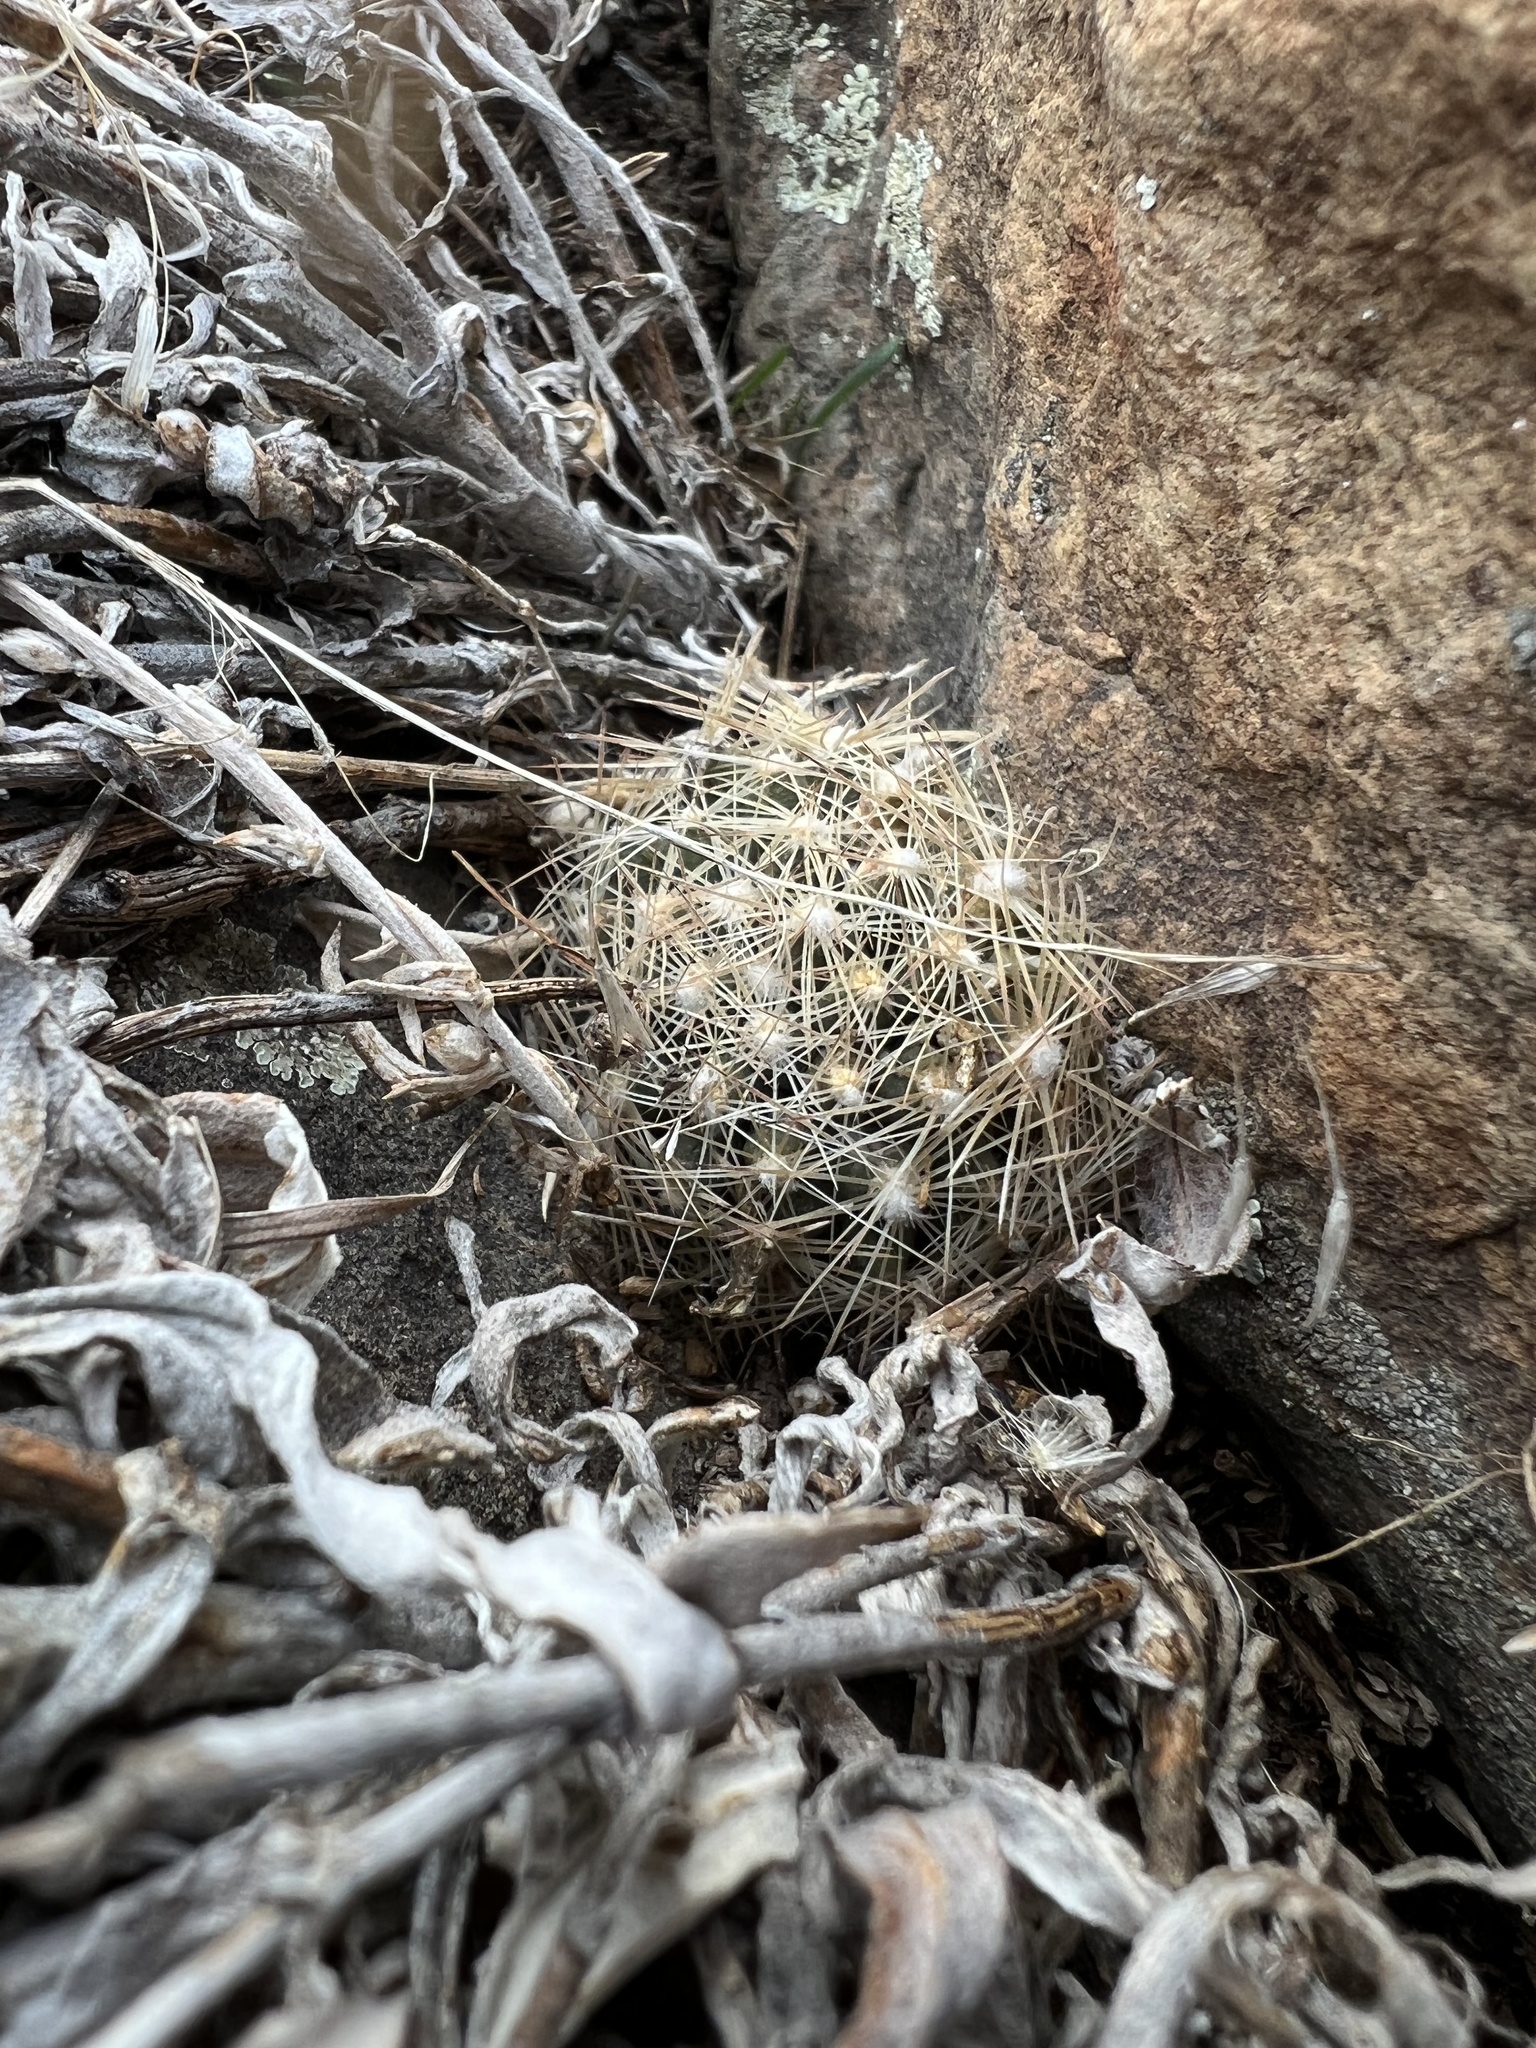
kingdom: Plantae
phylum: Tracheophyta
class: Magnoliopsida
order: Caryophyllales
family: Cactaceae
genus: Pelecyphora
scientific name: Pelecyphora missouriensis
